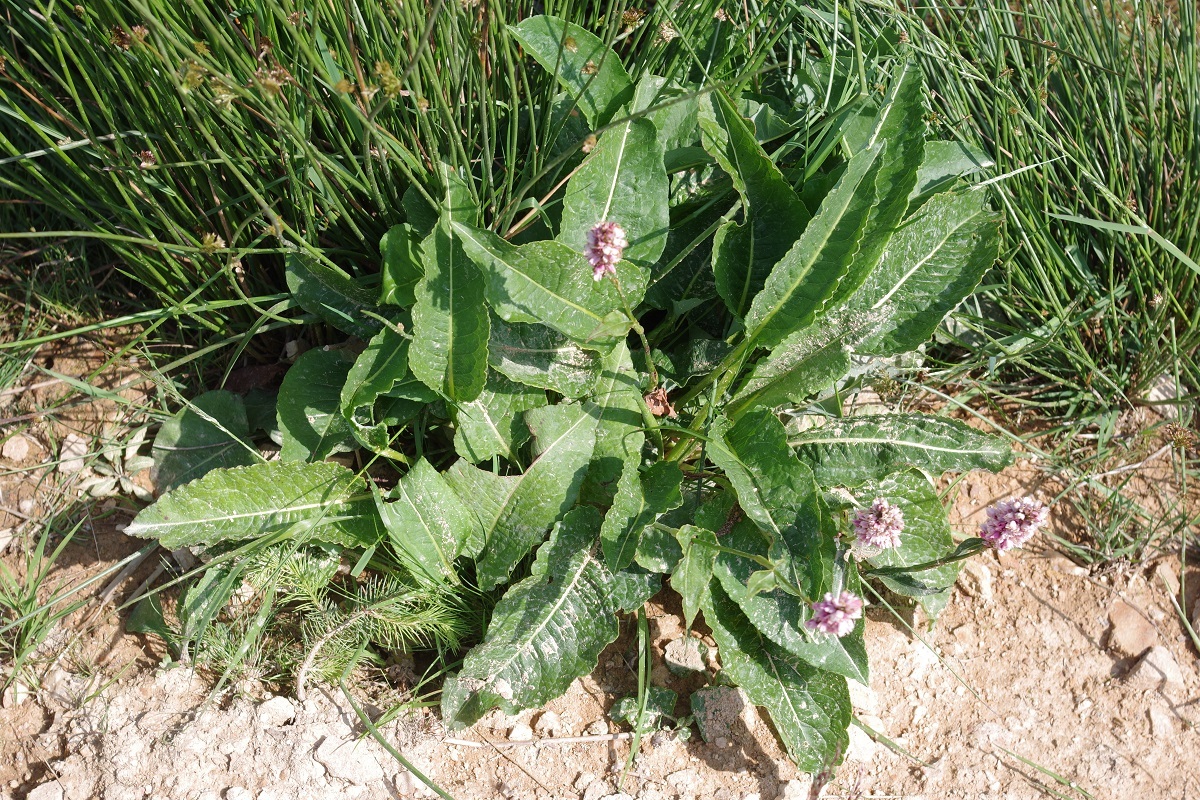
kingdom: Plantae
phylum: Tracheophyta
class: Magnoliopsida
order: Caryophyllales
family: Polygonaceae
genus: Bistorta
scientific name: Bistorta officinalis
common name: Common bistort
